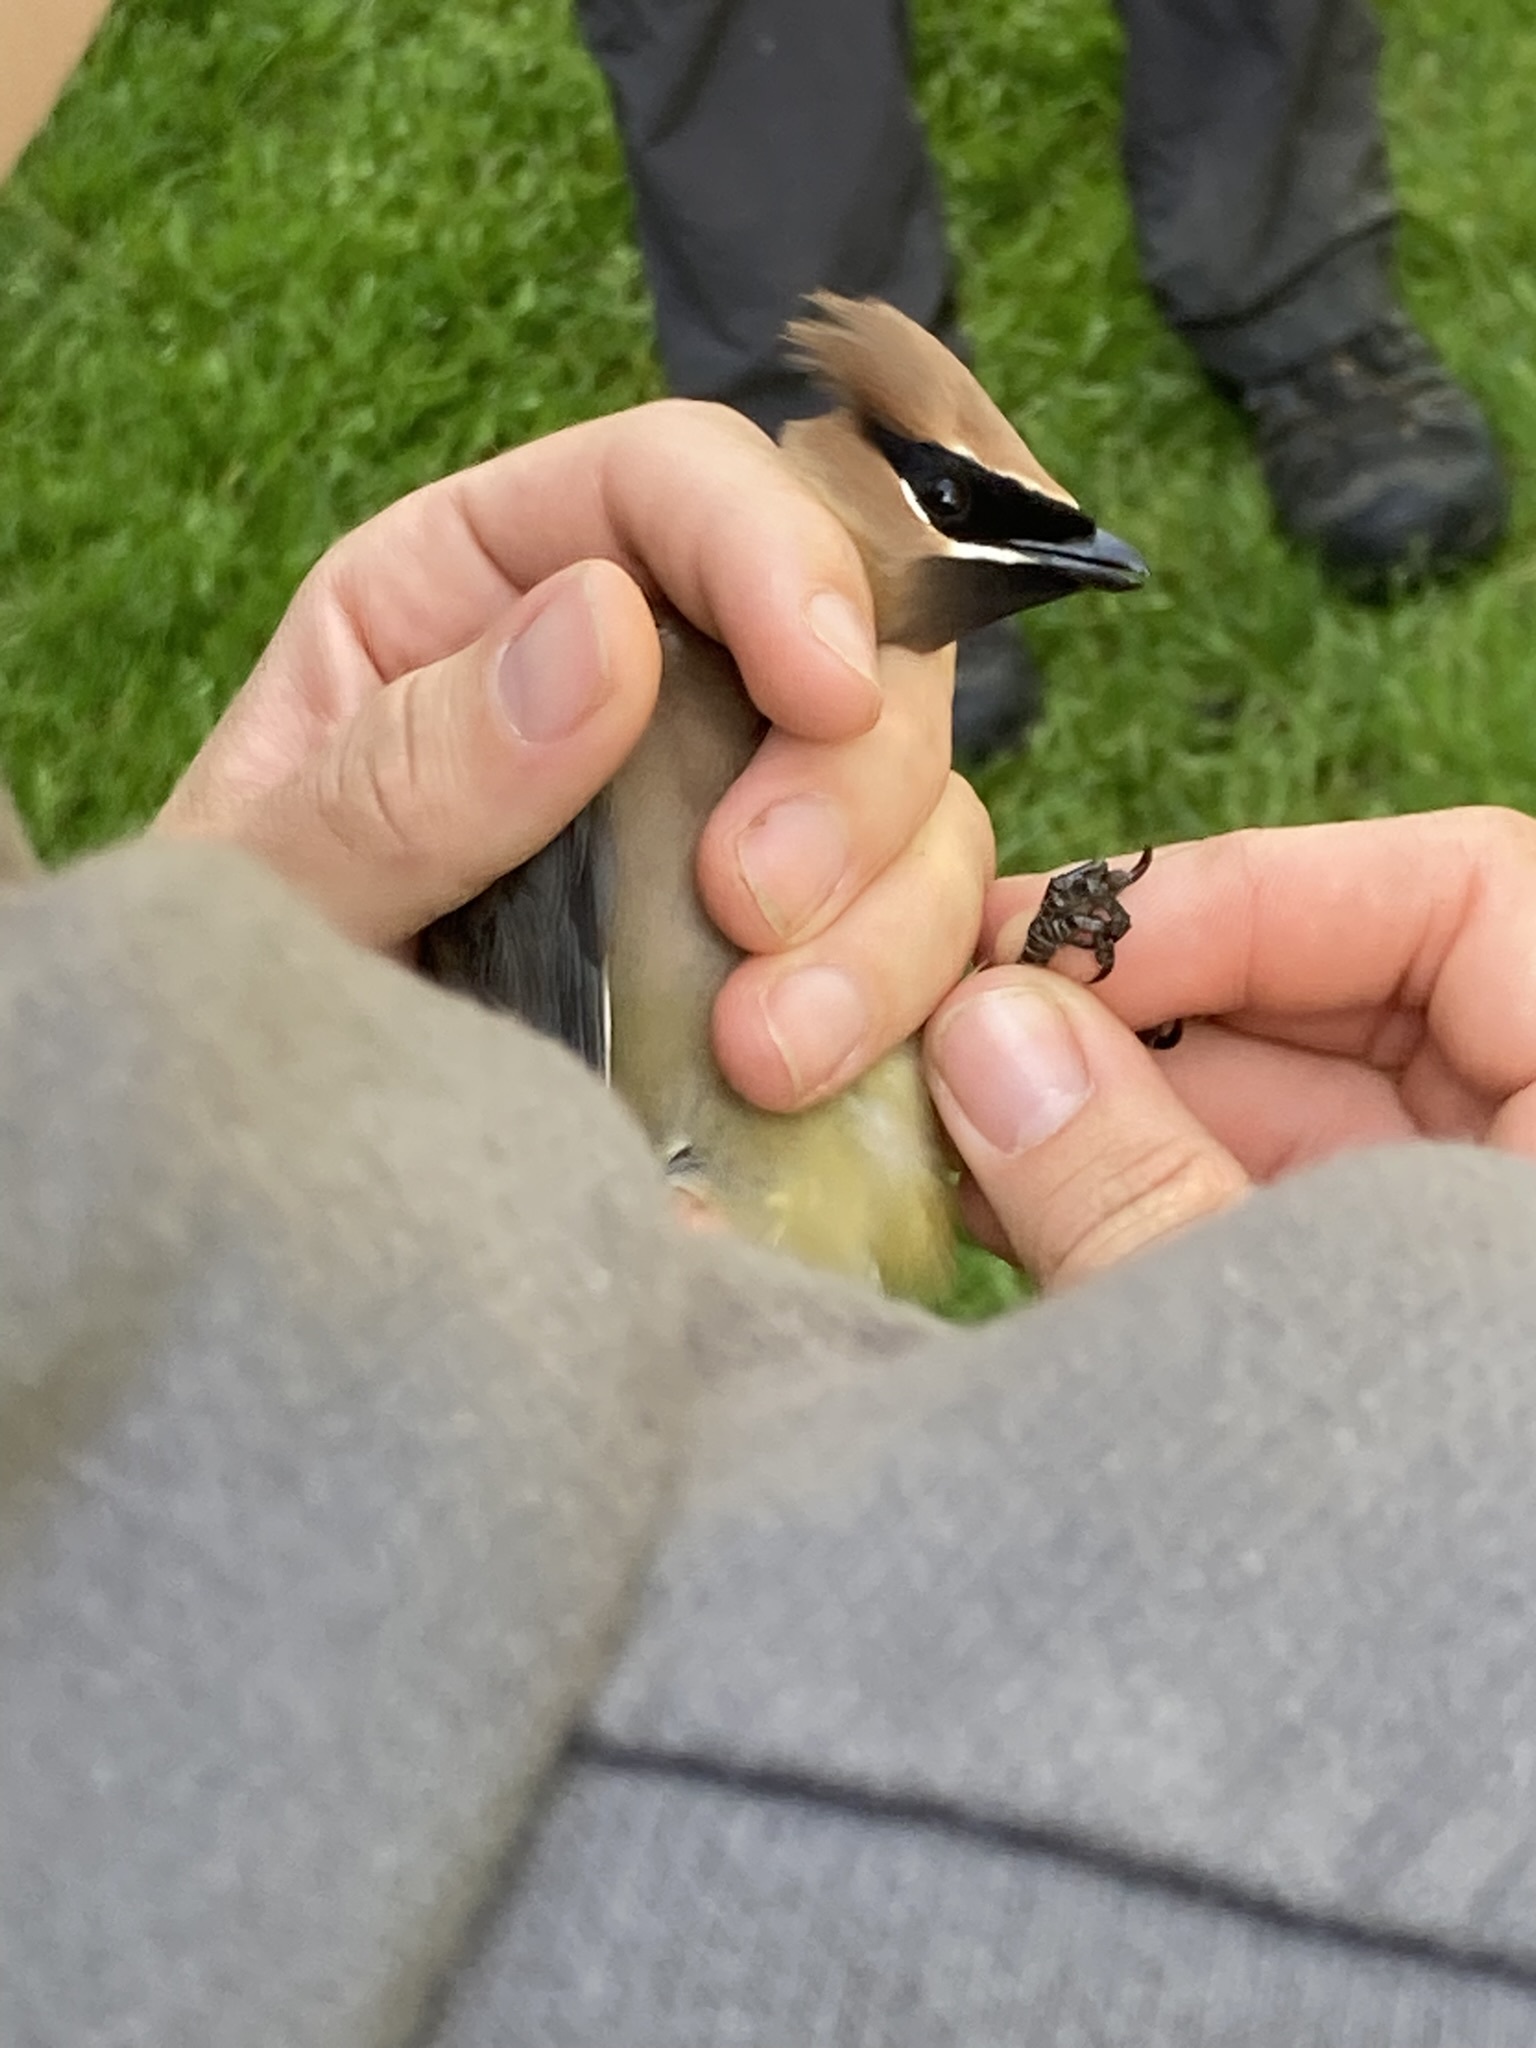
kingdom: Animalia
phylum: Chordata
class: Aves
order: Passeriformes
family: Bombycillidae
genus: Bombycilla
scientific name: Bombycilla cedrorum
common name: Cedar waxwing
